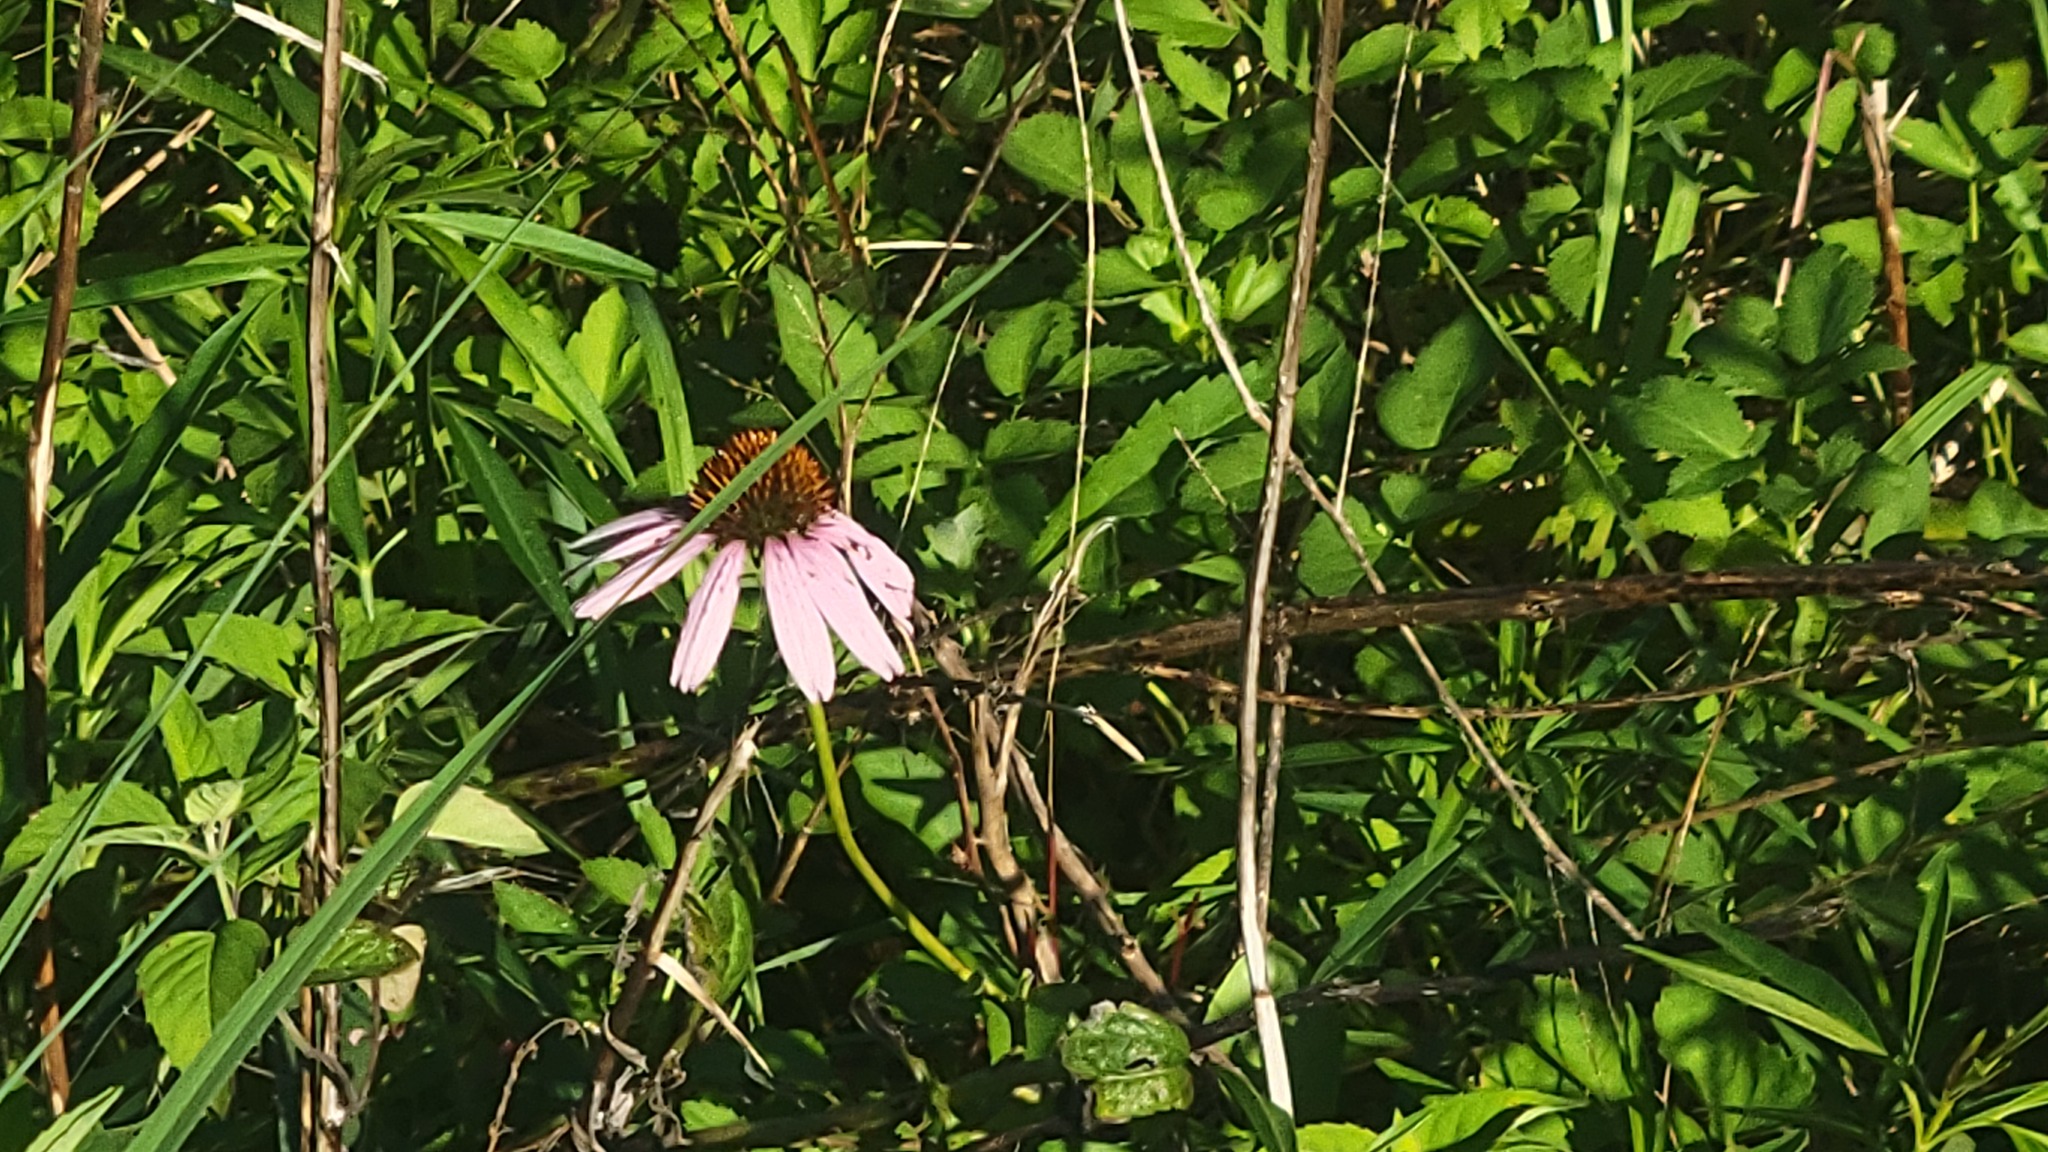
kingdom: Plantae
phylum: Tracheophyta
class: Magnoliopsida
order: Asterales
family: Asteraceae
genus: Echinacea
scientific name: Echinacea purpurea
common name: Broad-leaved purple coneflower
